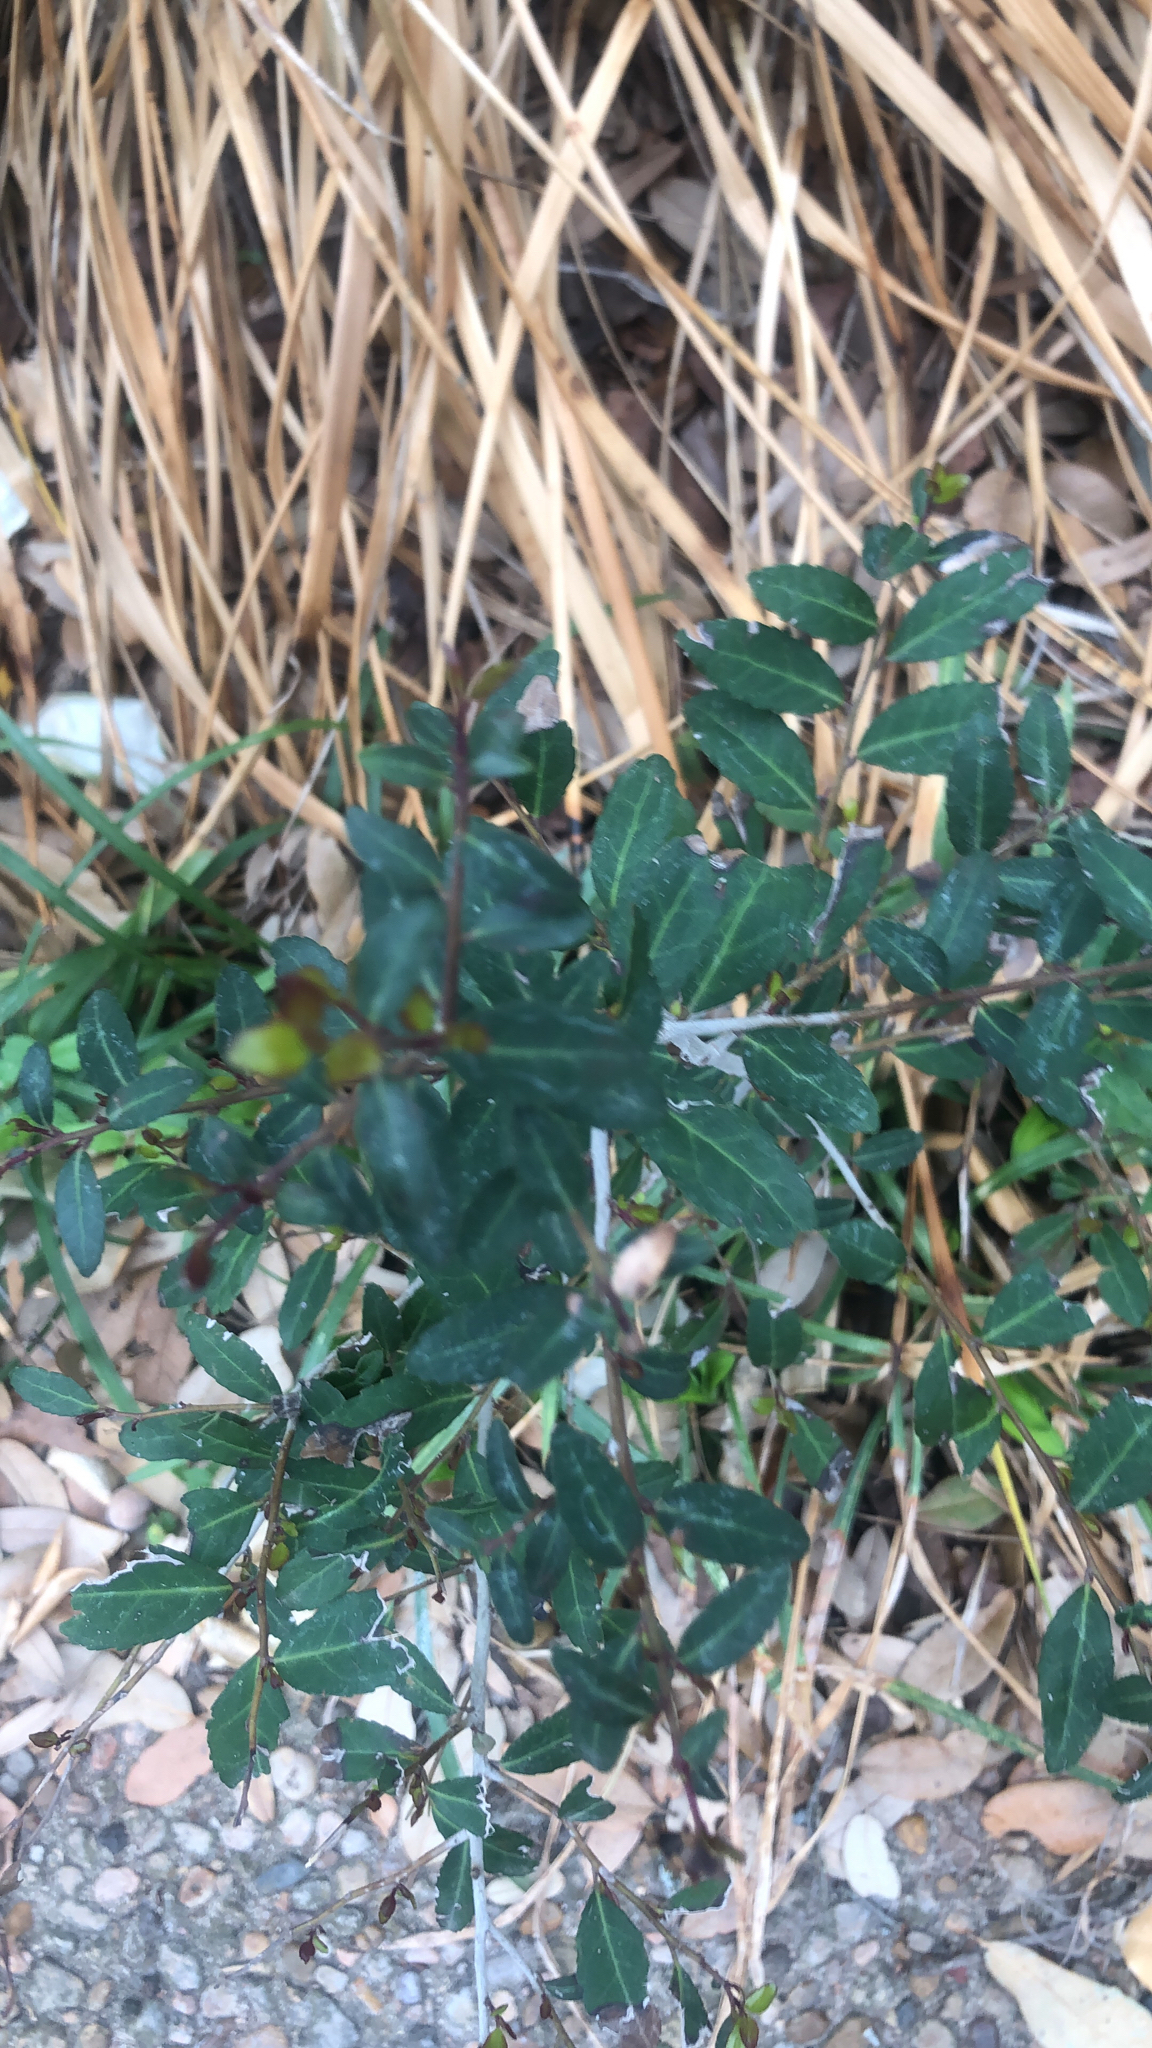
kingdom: Plantae
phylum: Tracheophyta
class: Magnoliopsida
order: Aquifoliales
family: Aquifoliaceae
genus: Ilex
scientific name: Ilex vomitoria
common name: Yaupon holly
